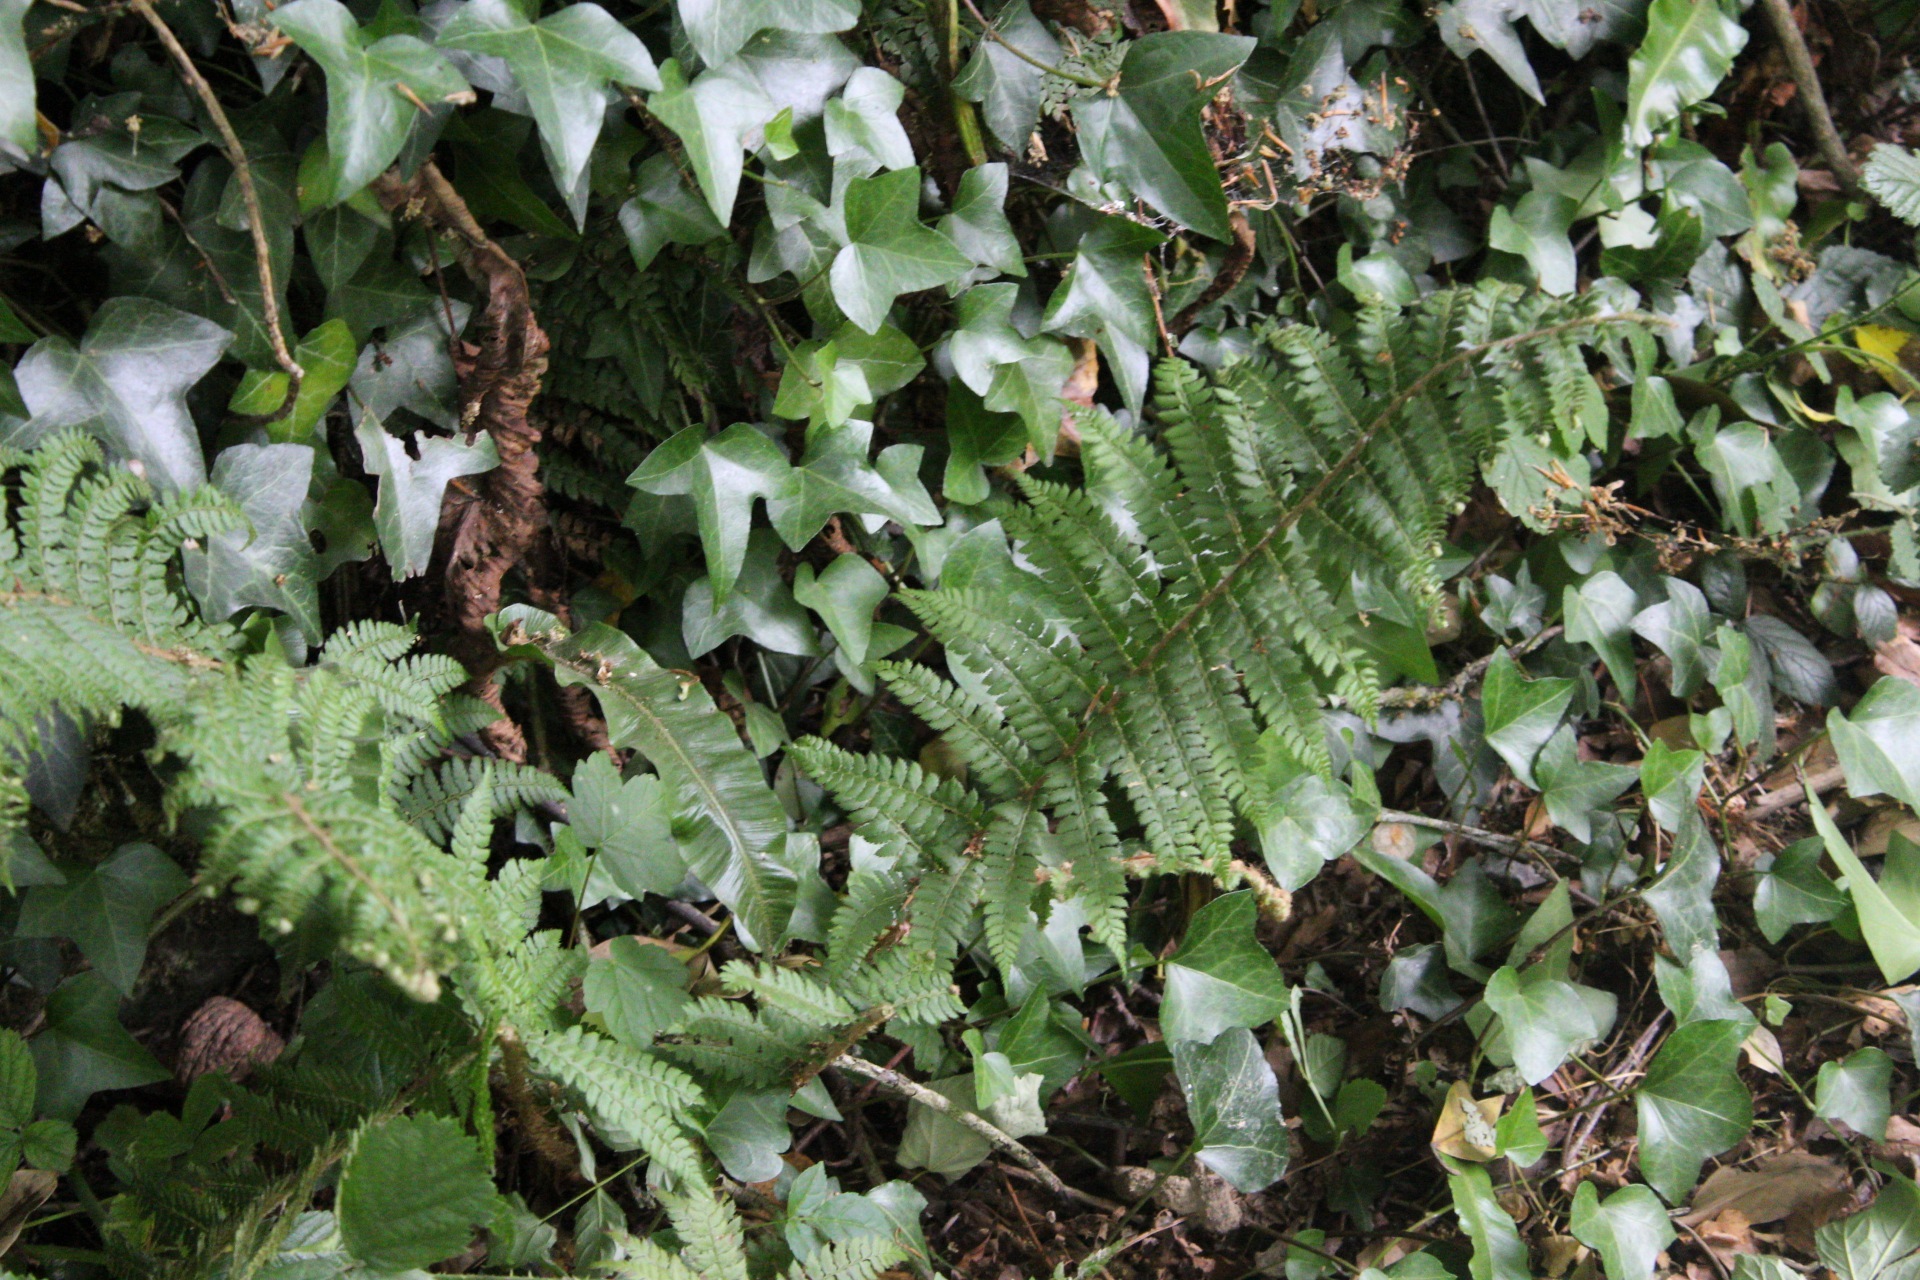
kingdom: Plantae
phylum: Tracheophyta
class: Polypodiopsida
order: Polypodiales
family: Dryopteridaceae
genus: Polystichum
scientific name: Polystichum setiferum
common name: Soft shield-fern
